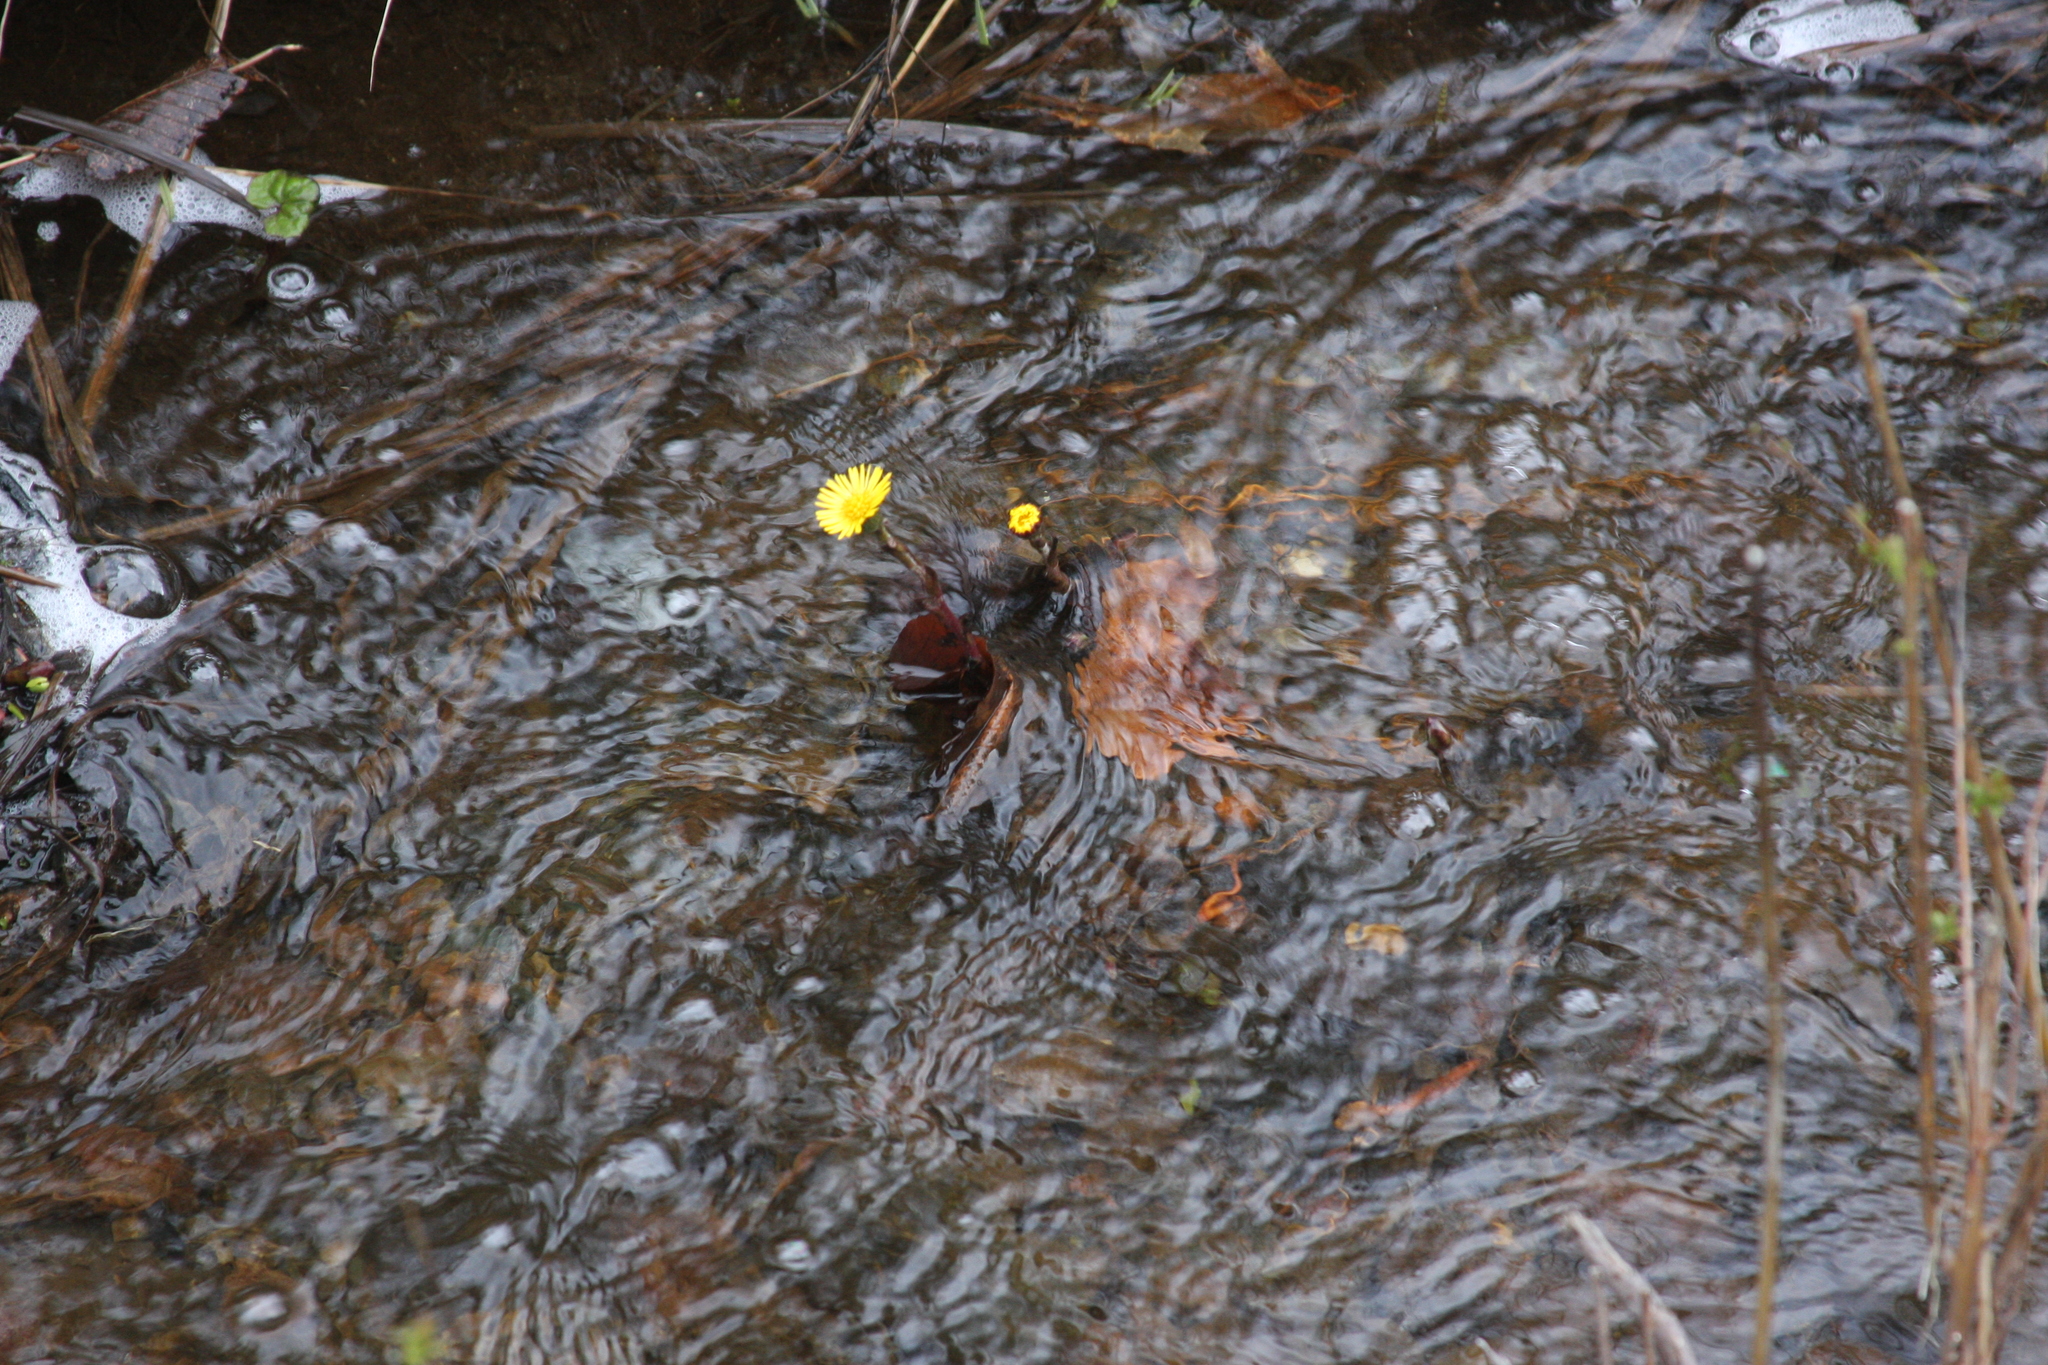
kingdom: Plantae
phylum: Tracheophyta
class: Magnoliopsida
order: Asterales
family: Asteraceae
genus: Tussilago
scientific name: Tussilago farfara
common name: Coltsfoot
